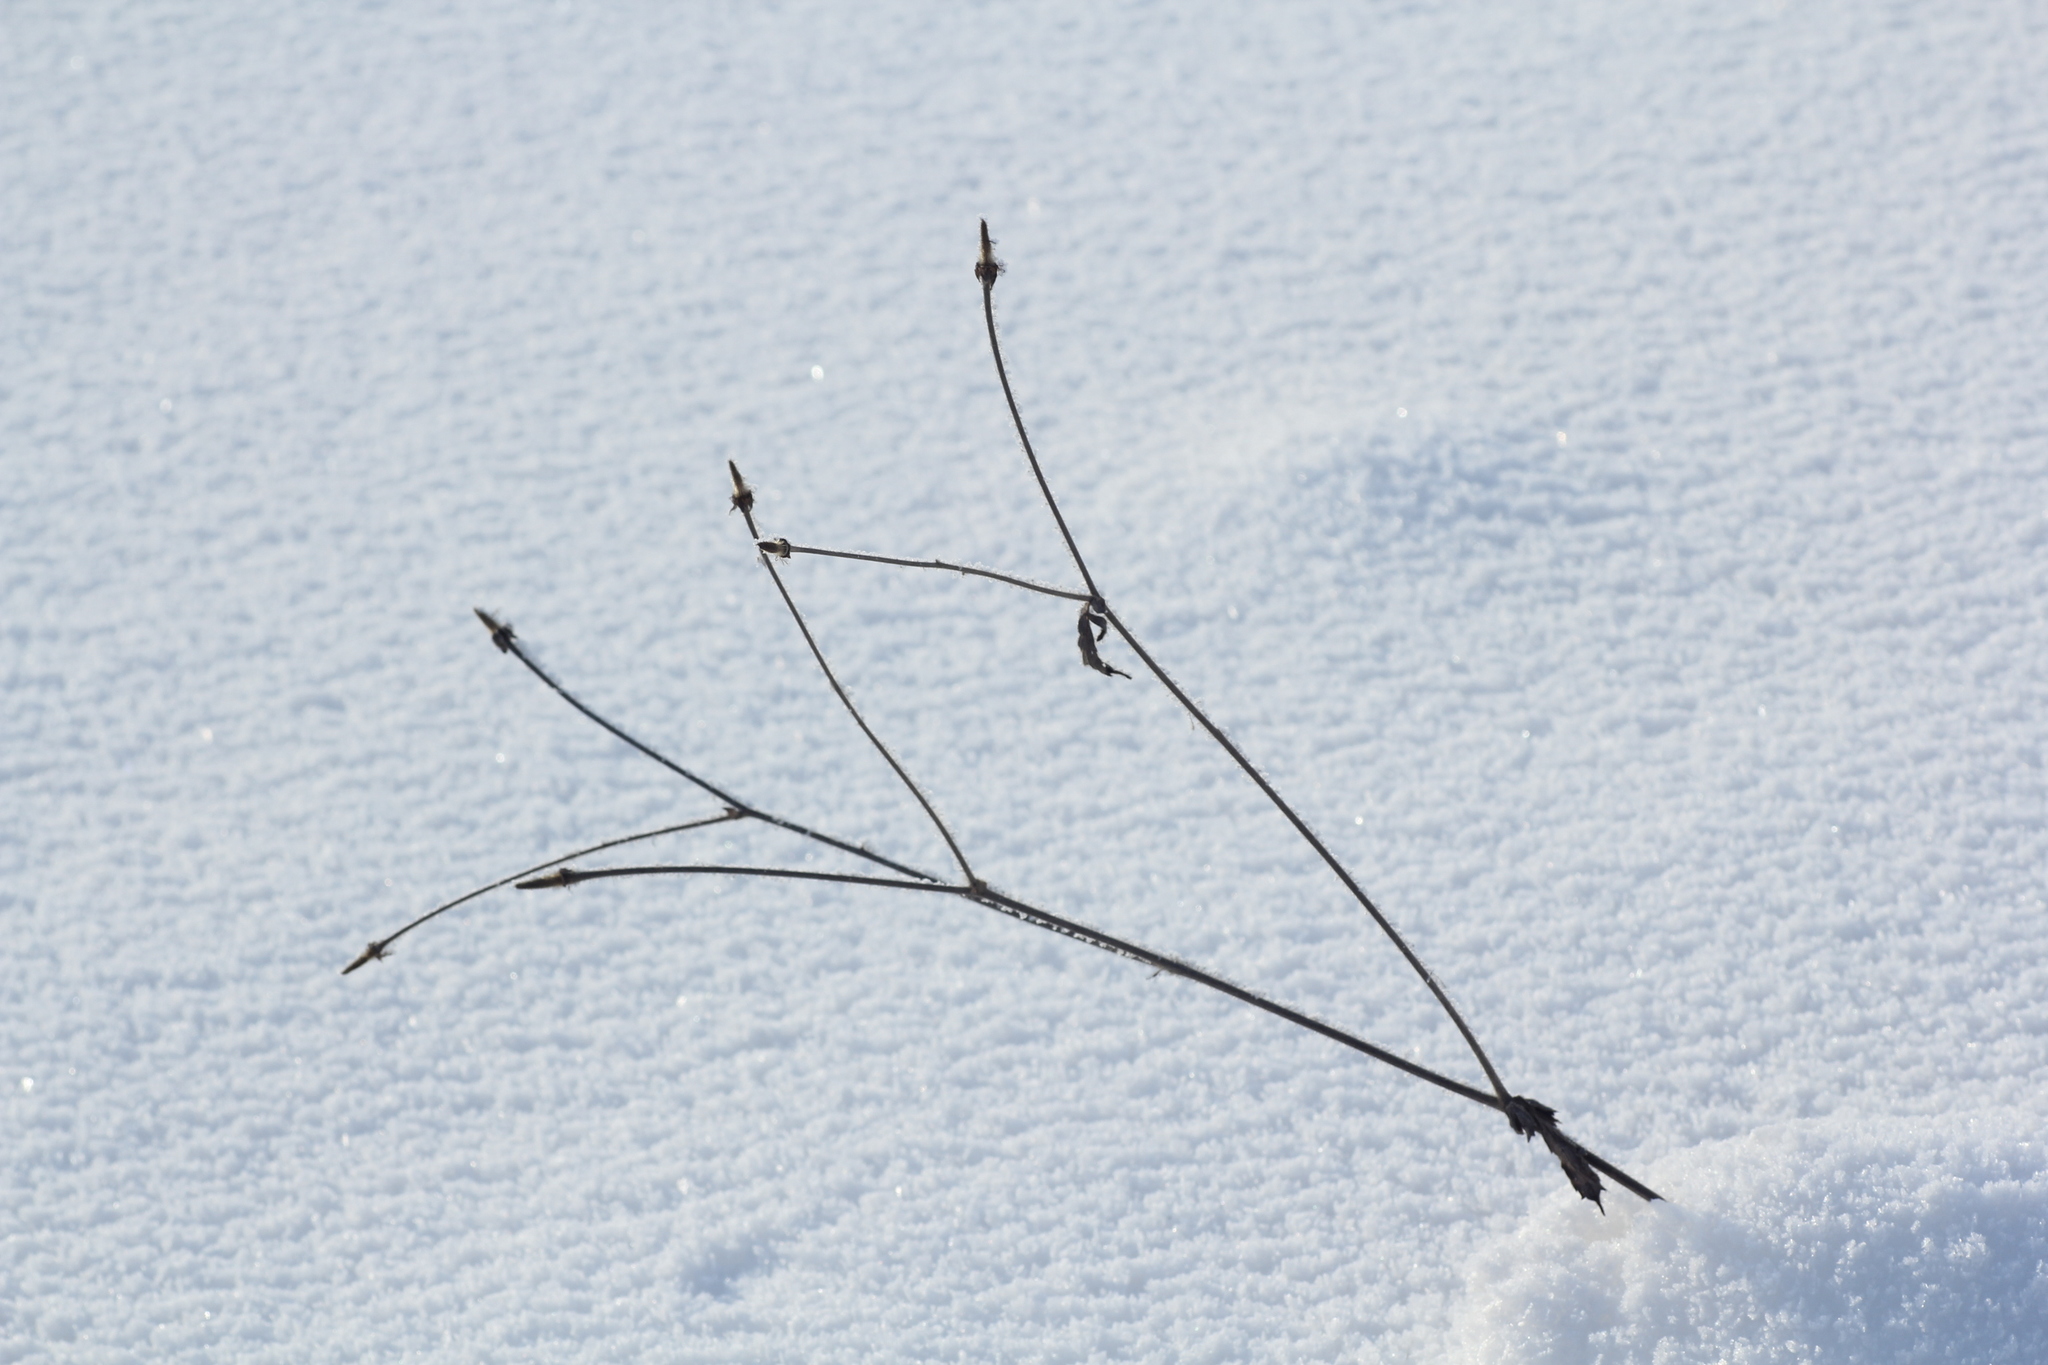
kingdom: Plantae
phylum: Tracheophyta
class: Magnoliopsida
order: Rosales
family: Rosaceae
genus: Geum
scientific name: Geum aleppicum
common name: Yellow avens
